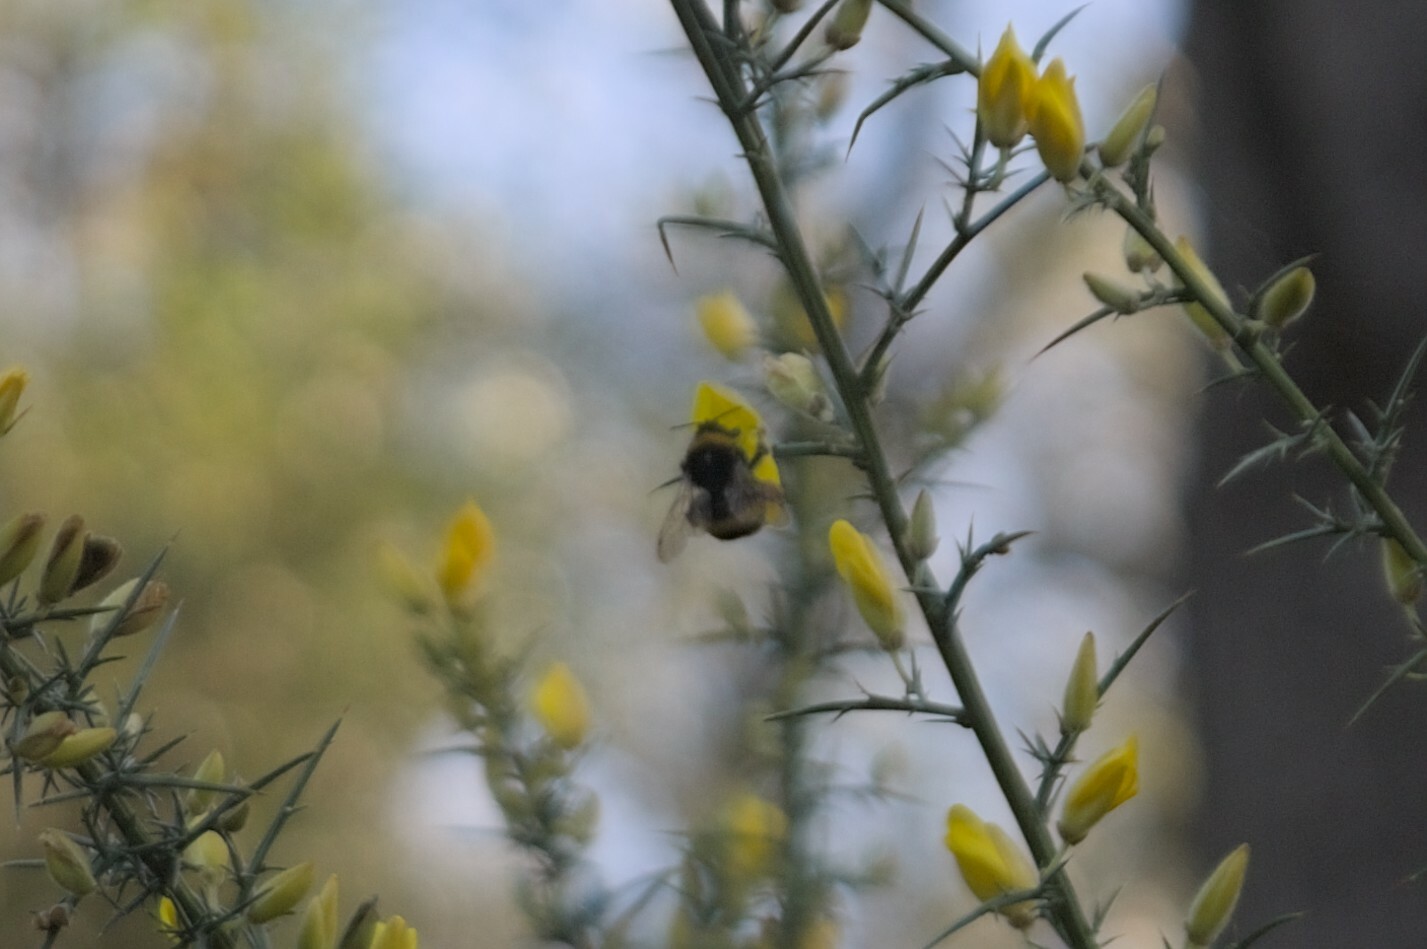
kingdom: Animalia
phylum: Arthropoda
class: Insecta
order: Hymenoptera
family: Apidae
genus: Bombus
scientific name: Bombus terrestris
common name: Buff-tailed bumblebee
